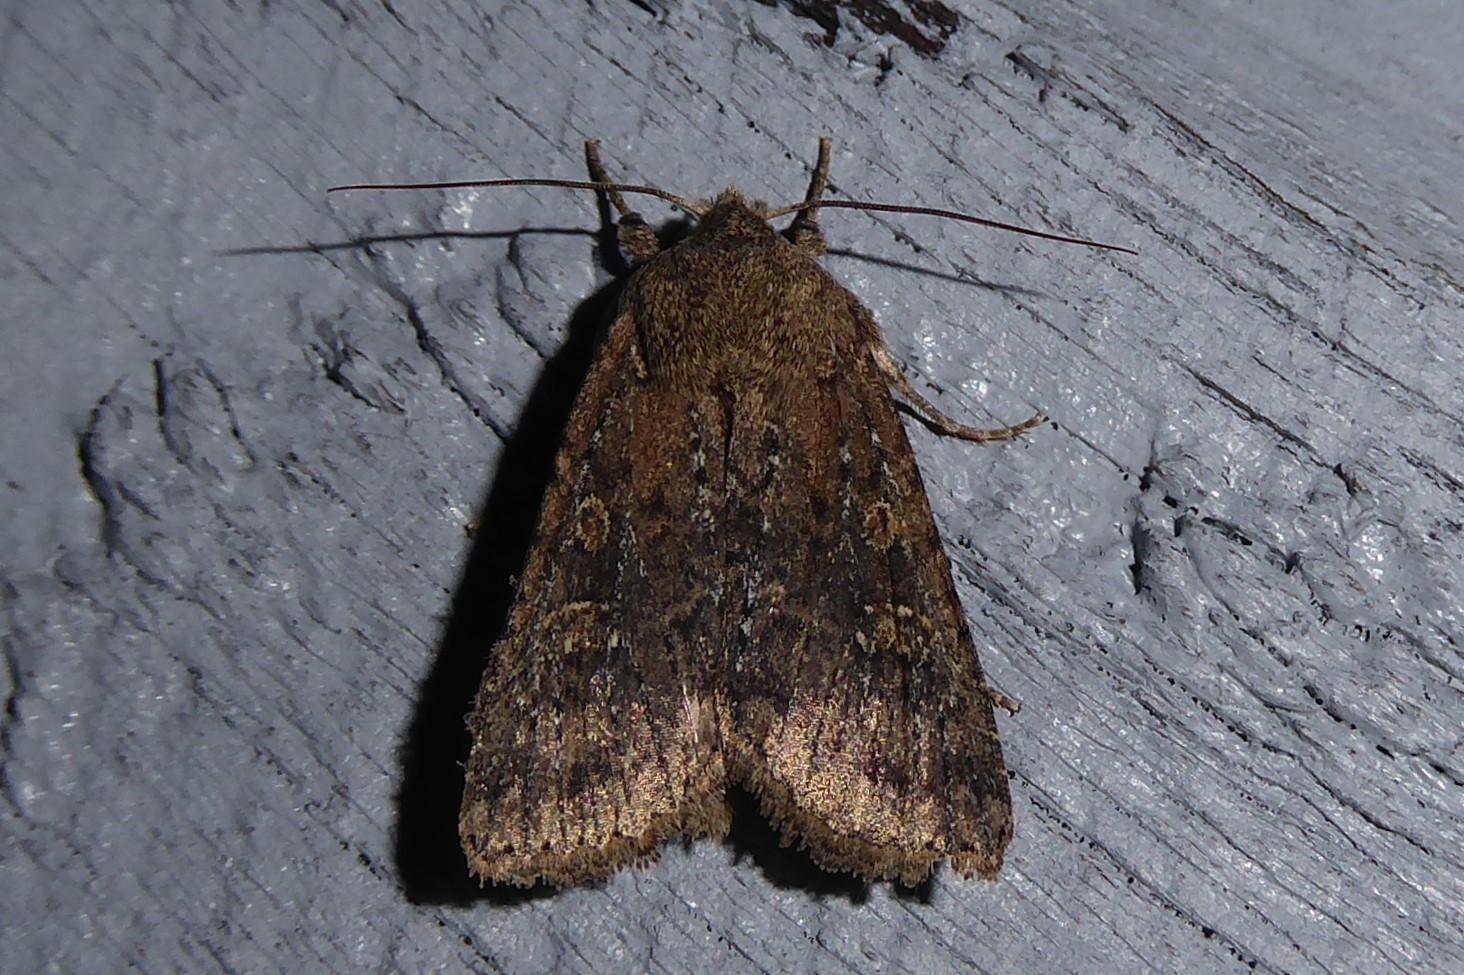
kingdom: Animalia
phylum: Arthropoda
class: Insecta
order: Lepidoptera
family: Noctuidae
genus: Ichneutica
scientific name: Ichneutica morosa
